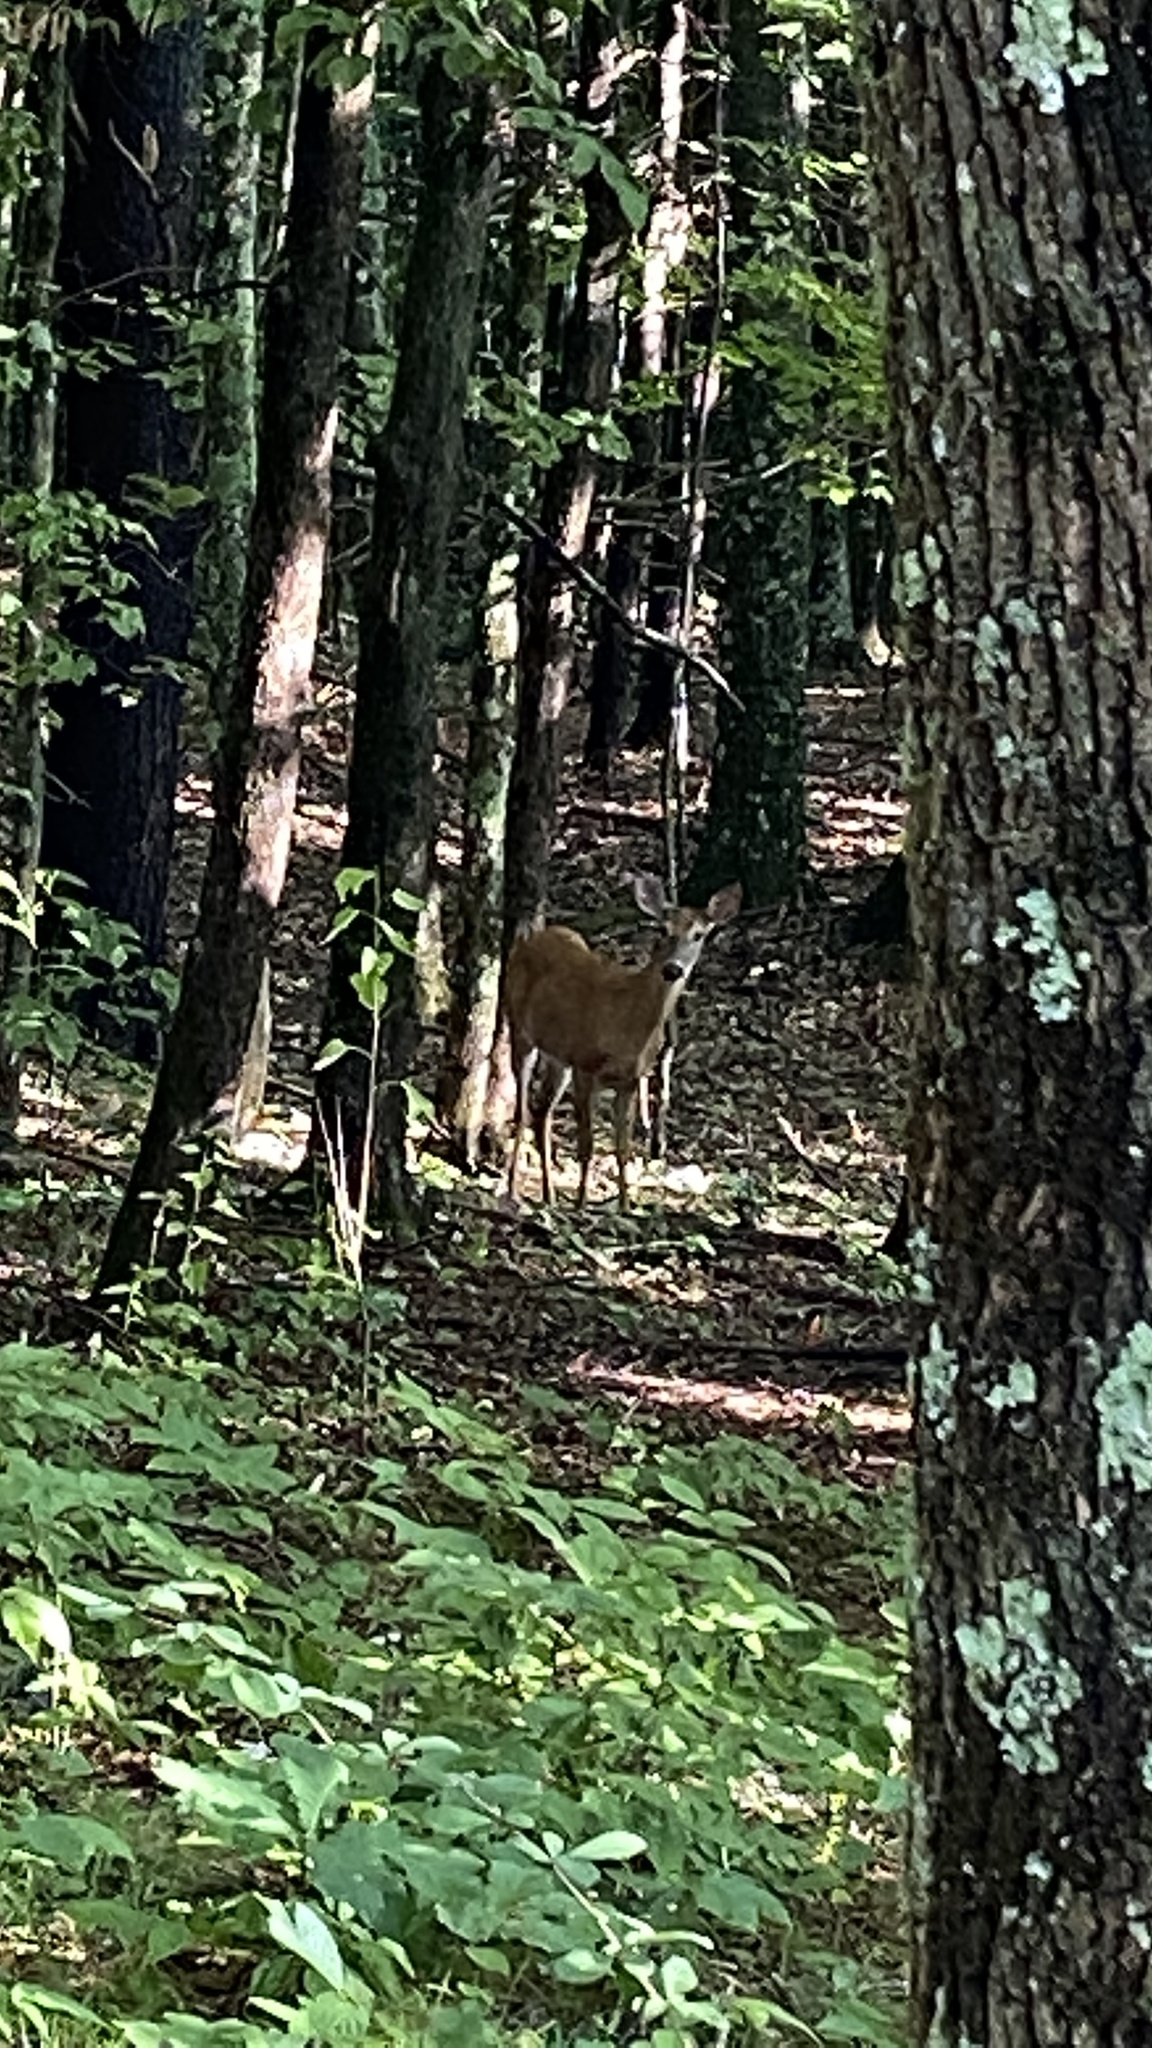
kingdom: Animalia
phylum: Chordata
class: Mammalia
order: Artiodactyla
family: Cervidae
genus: Odocoileus
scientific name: Odocoileus virginianus
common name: White-tailed deer
